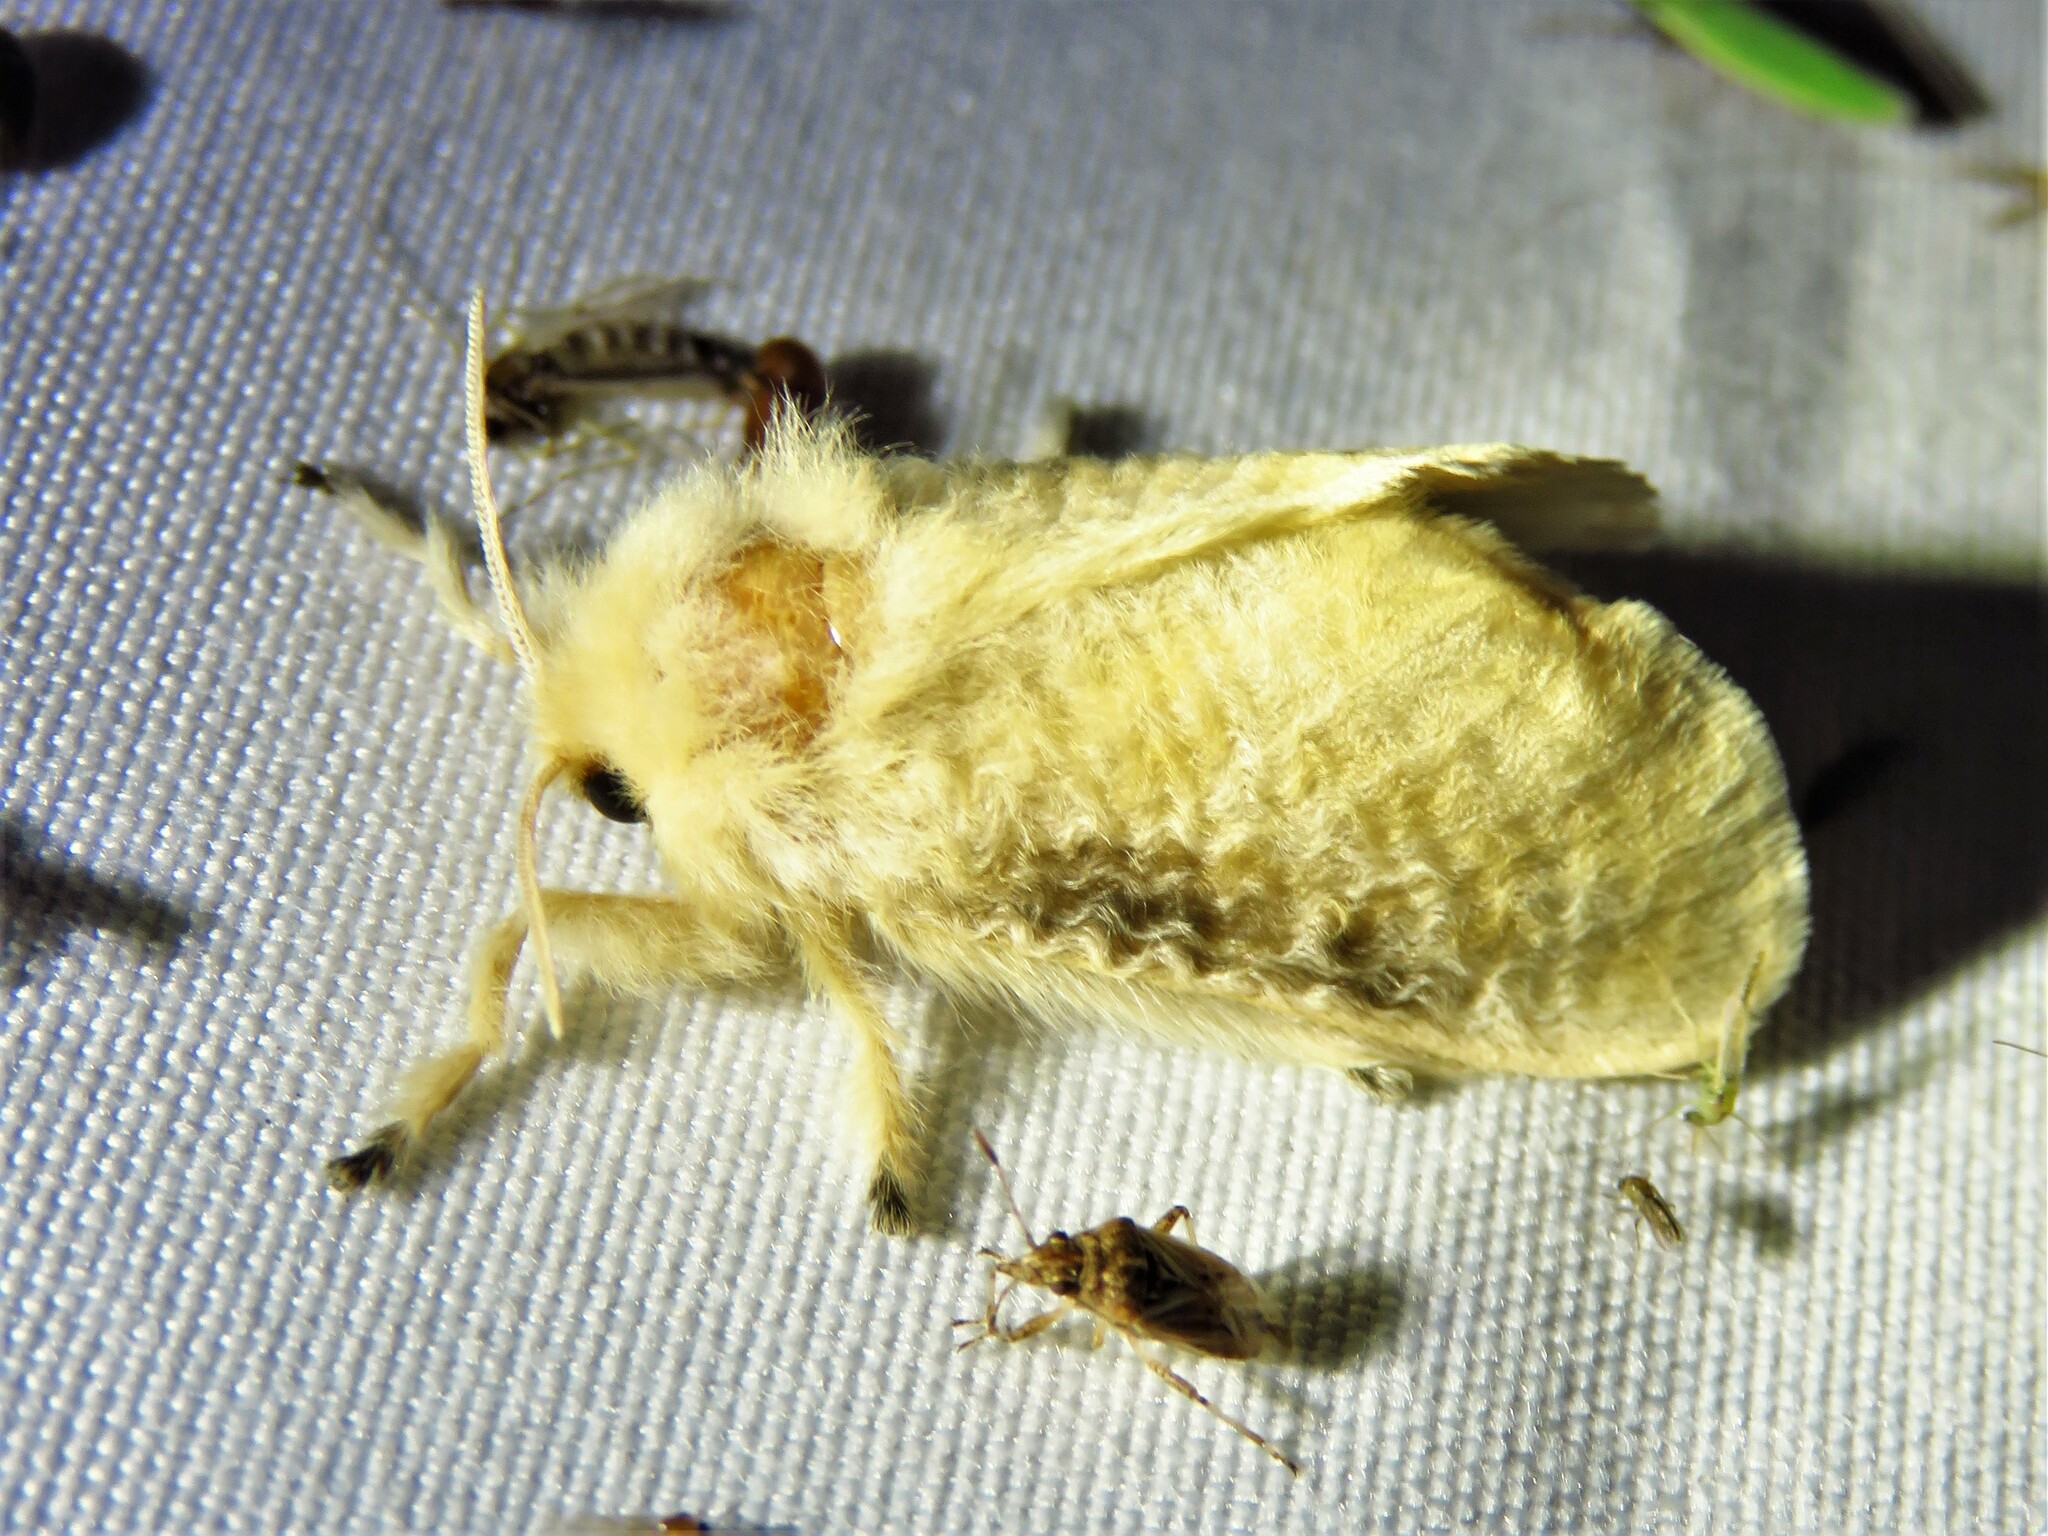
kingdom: Animalia
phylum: Arthropoda
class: Insecta
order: Lepidoptera
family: Megalopygidae
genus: Megalopyge
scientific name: Megalopyge crispata
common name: Black-waved flannel moth
